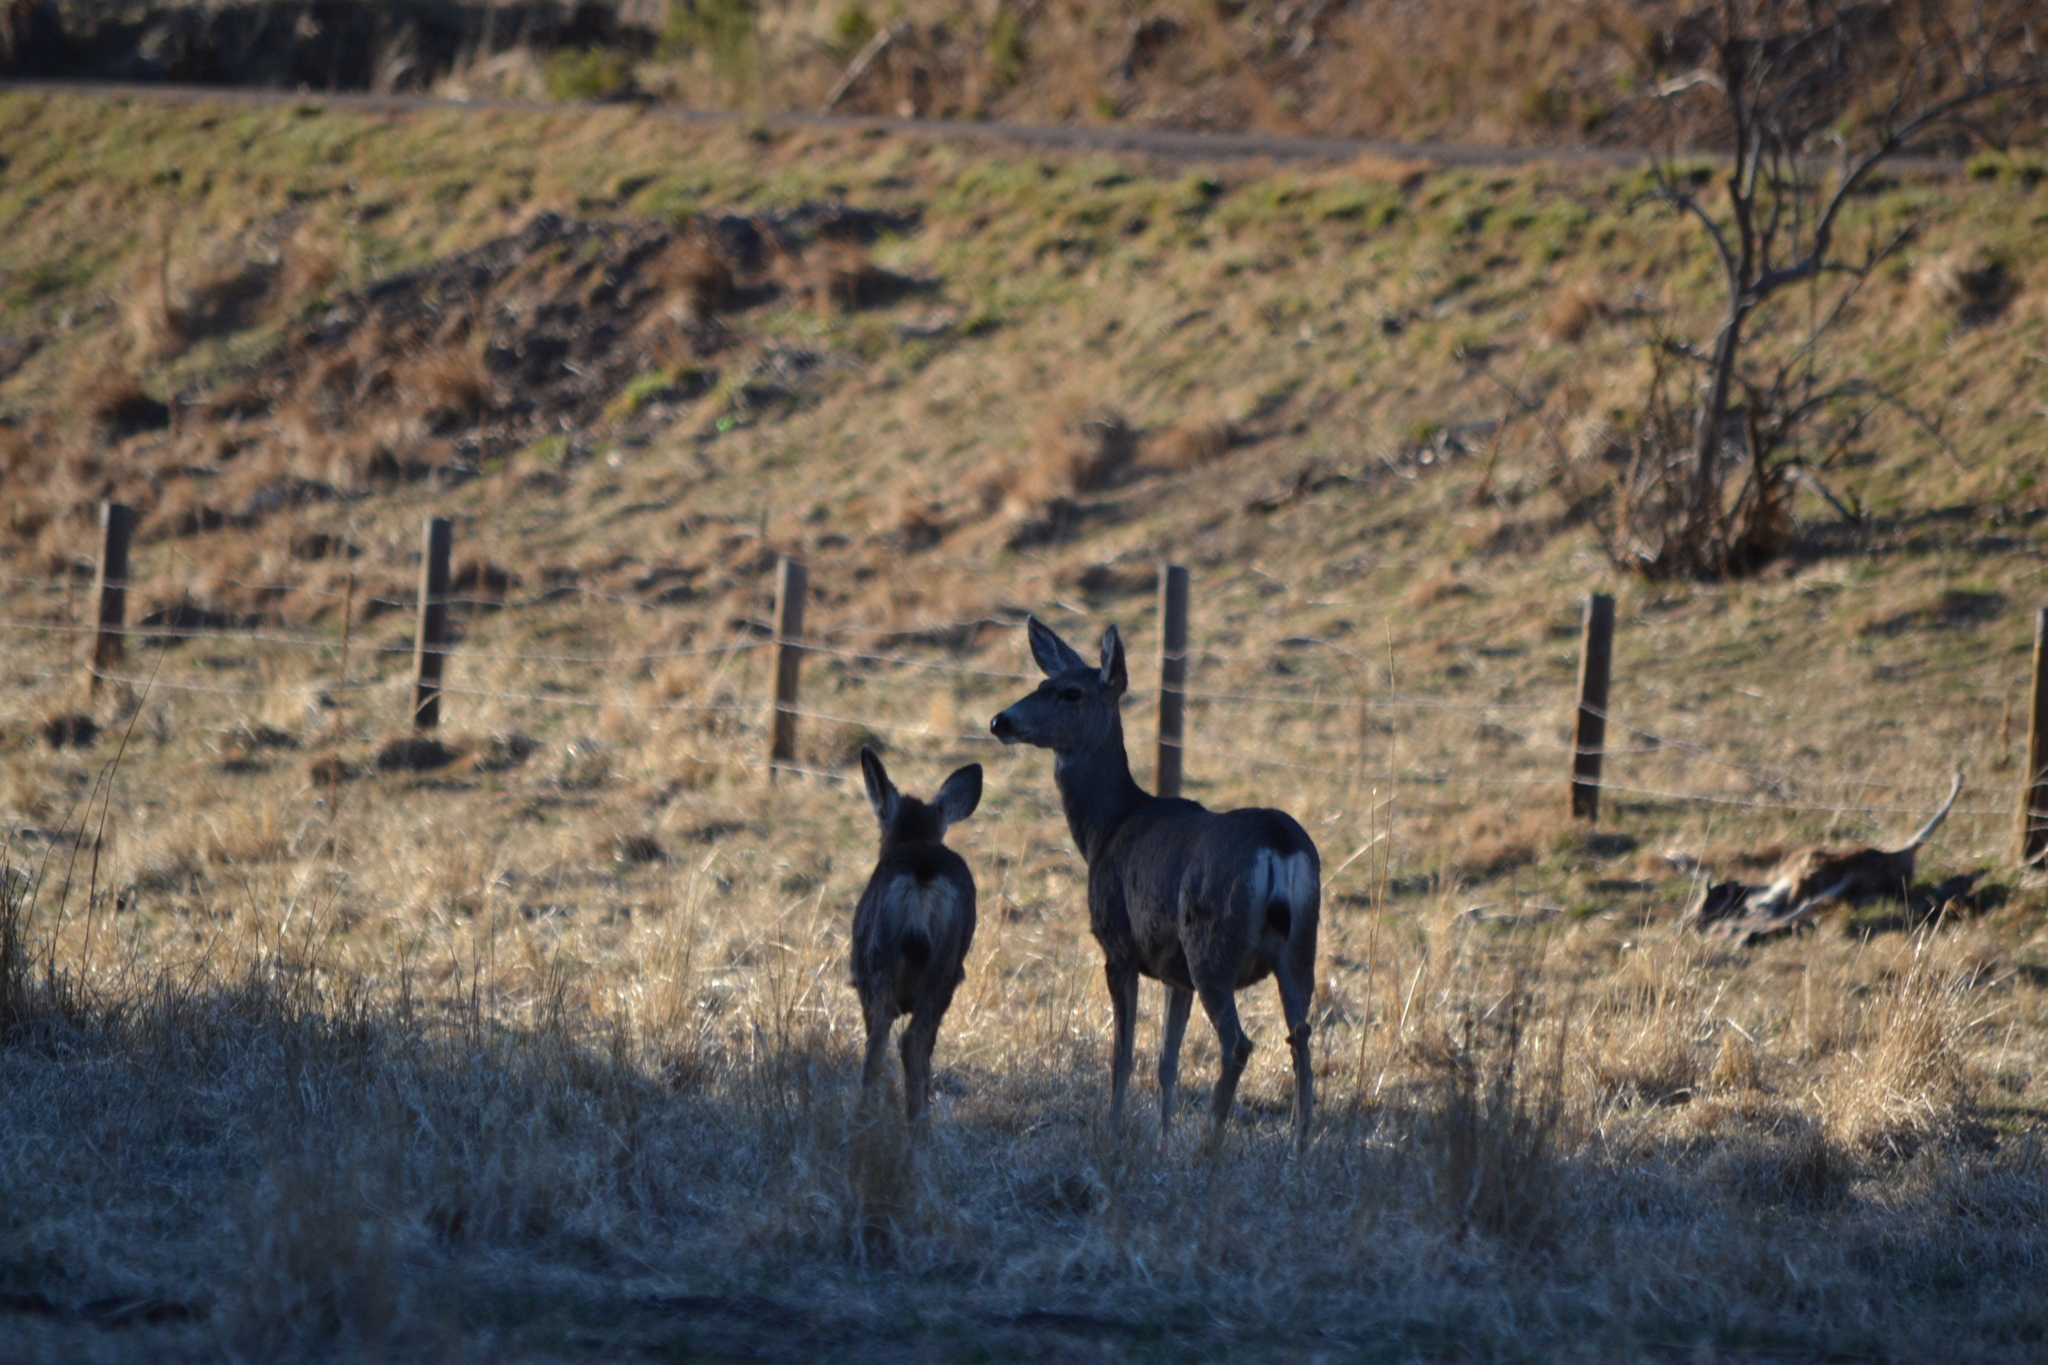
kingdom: Animalia
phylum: Chordata
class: Mammalia
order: Artiodactyla
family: Cervidae
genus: Odocoileus
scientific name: Odocoileus hemionus
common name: Mule deer
